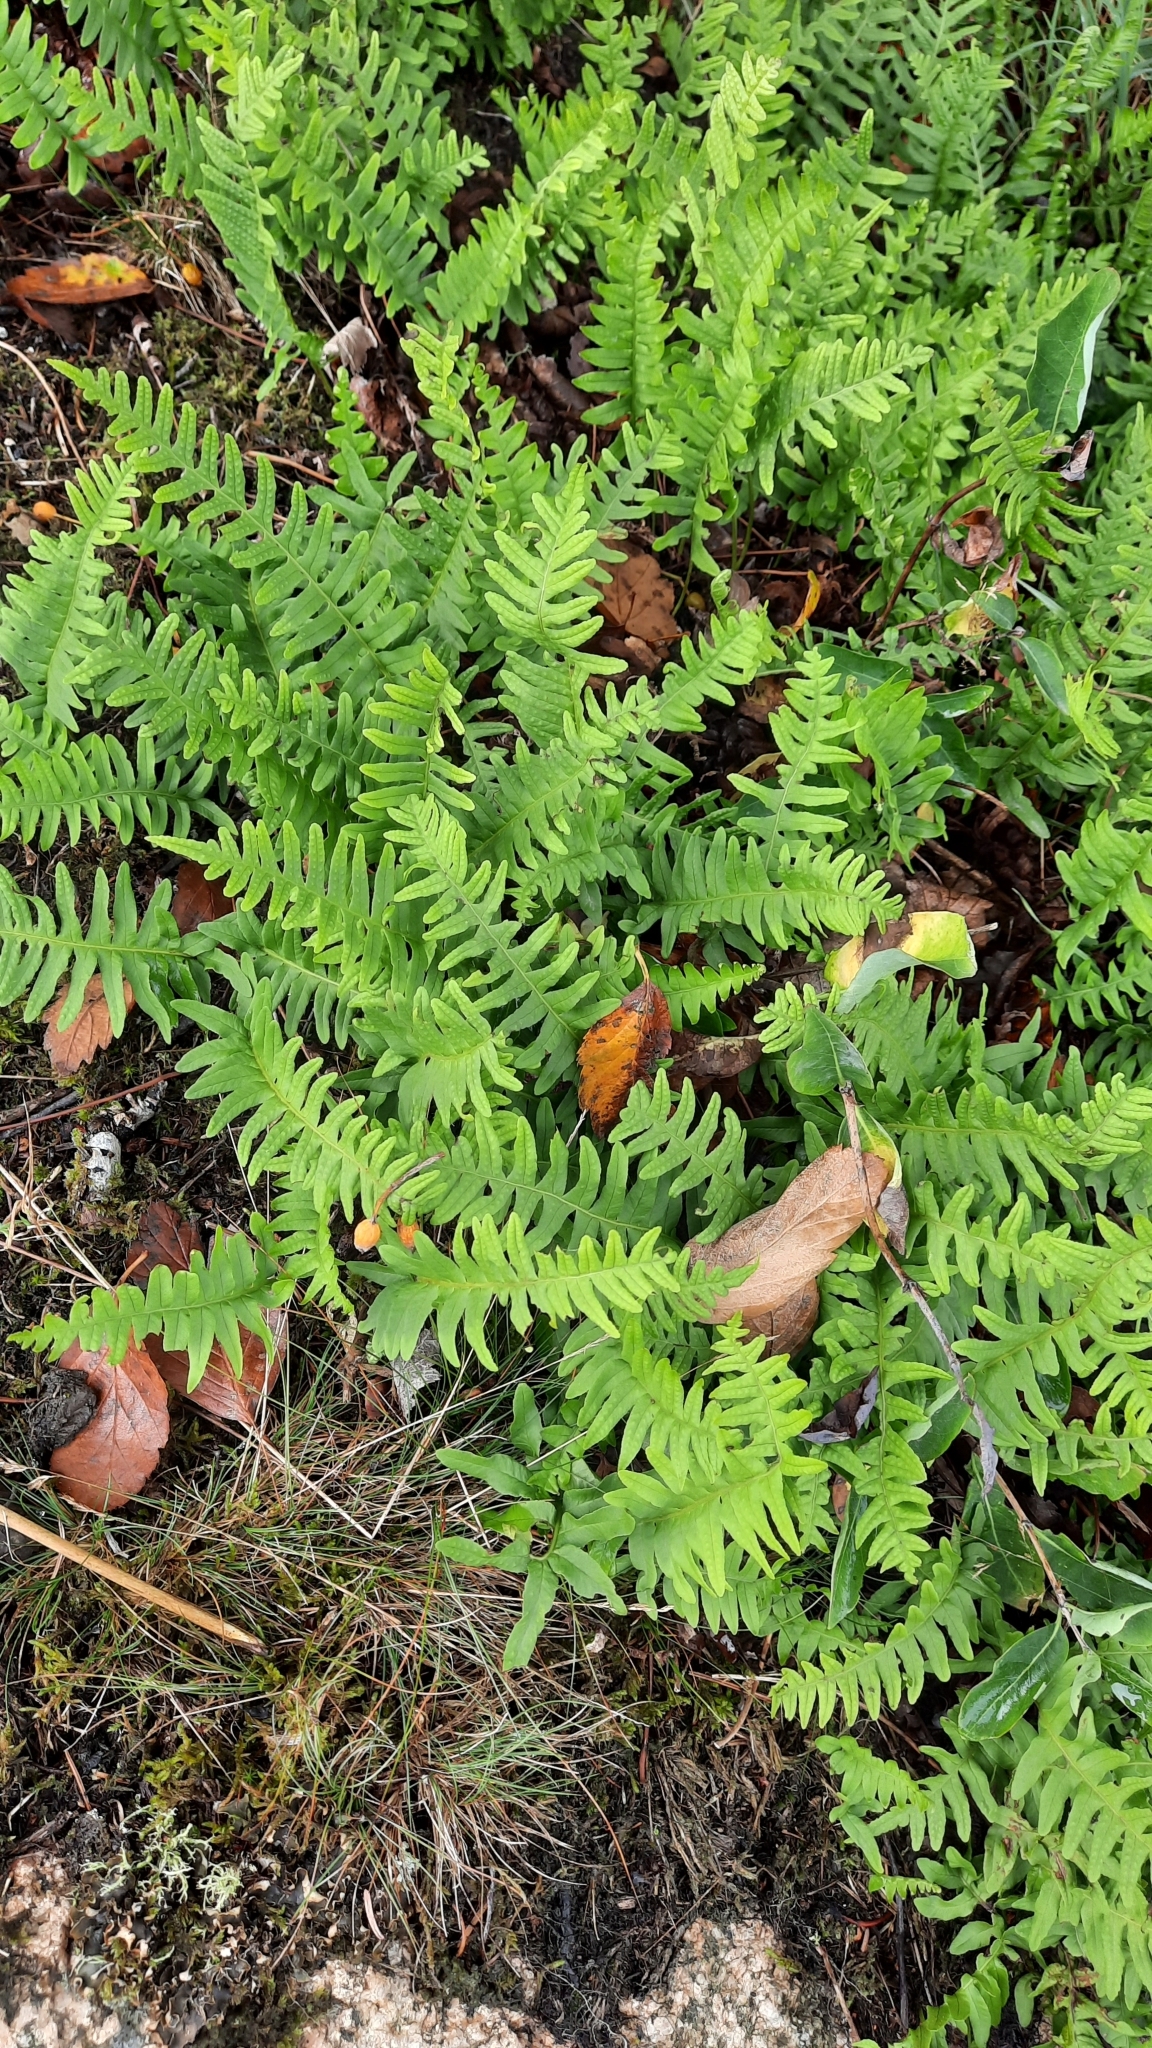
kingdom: Plantae
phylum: Tracheophyta
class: Polypodiopsida
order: Polypodiales
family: Polypodiaceae
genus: Polypodium
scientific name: Polypodium vulgare
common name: Common polypody
